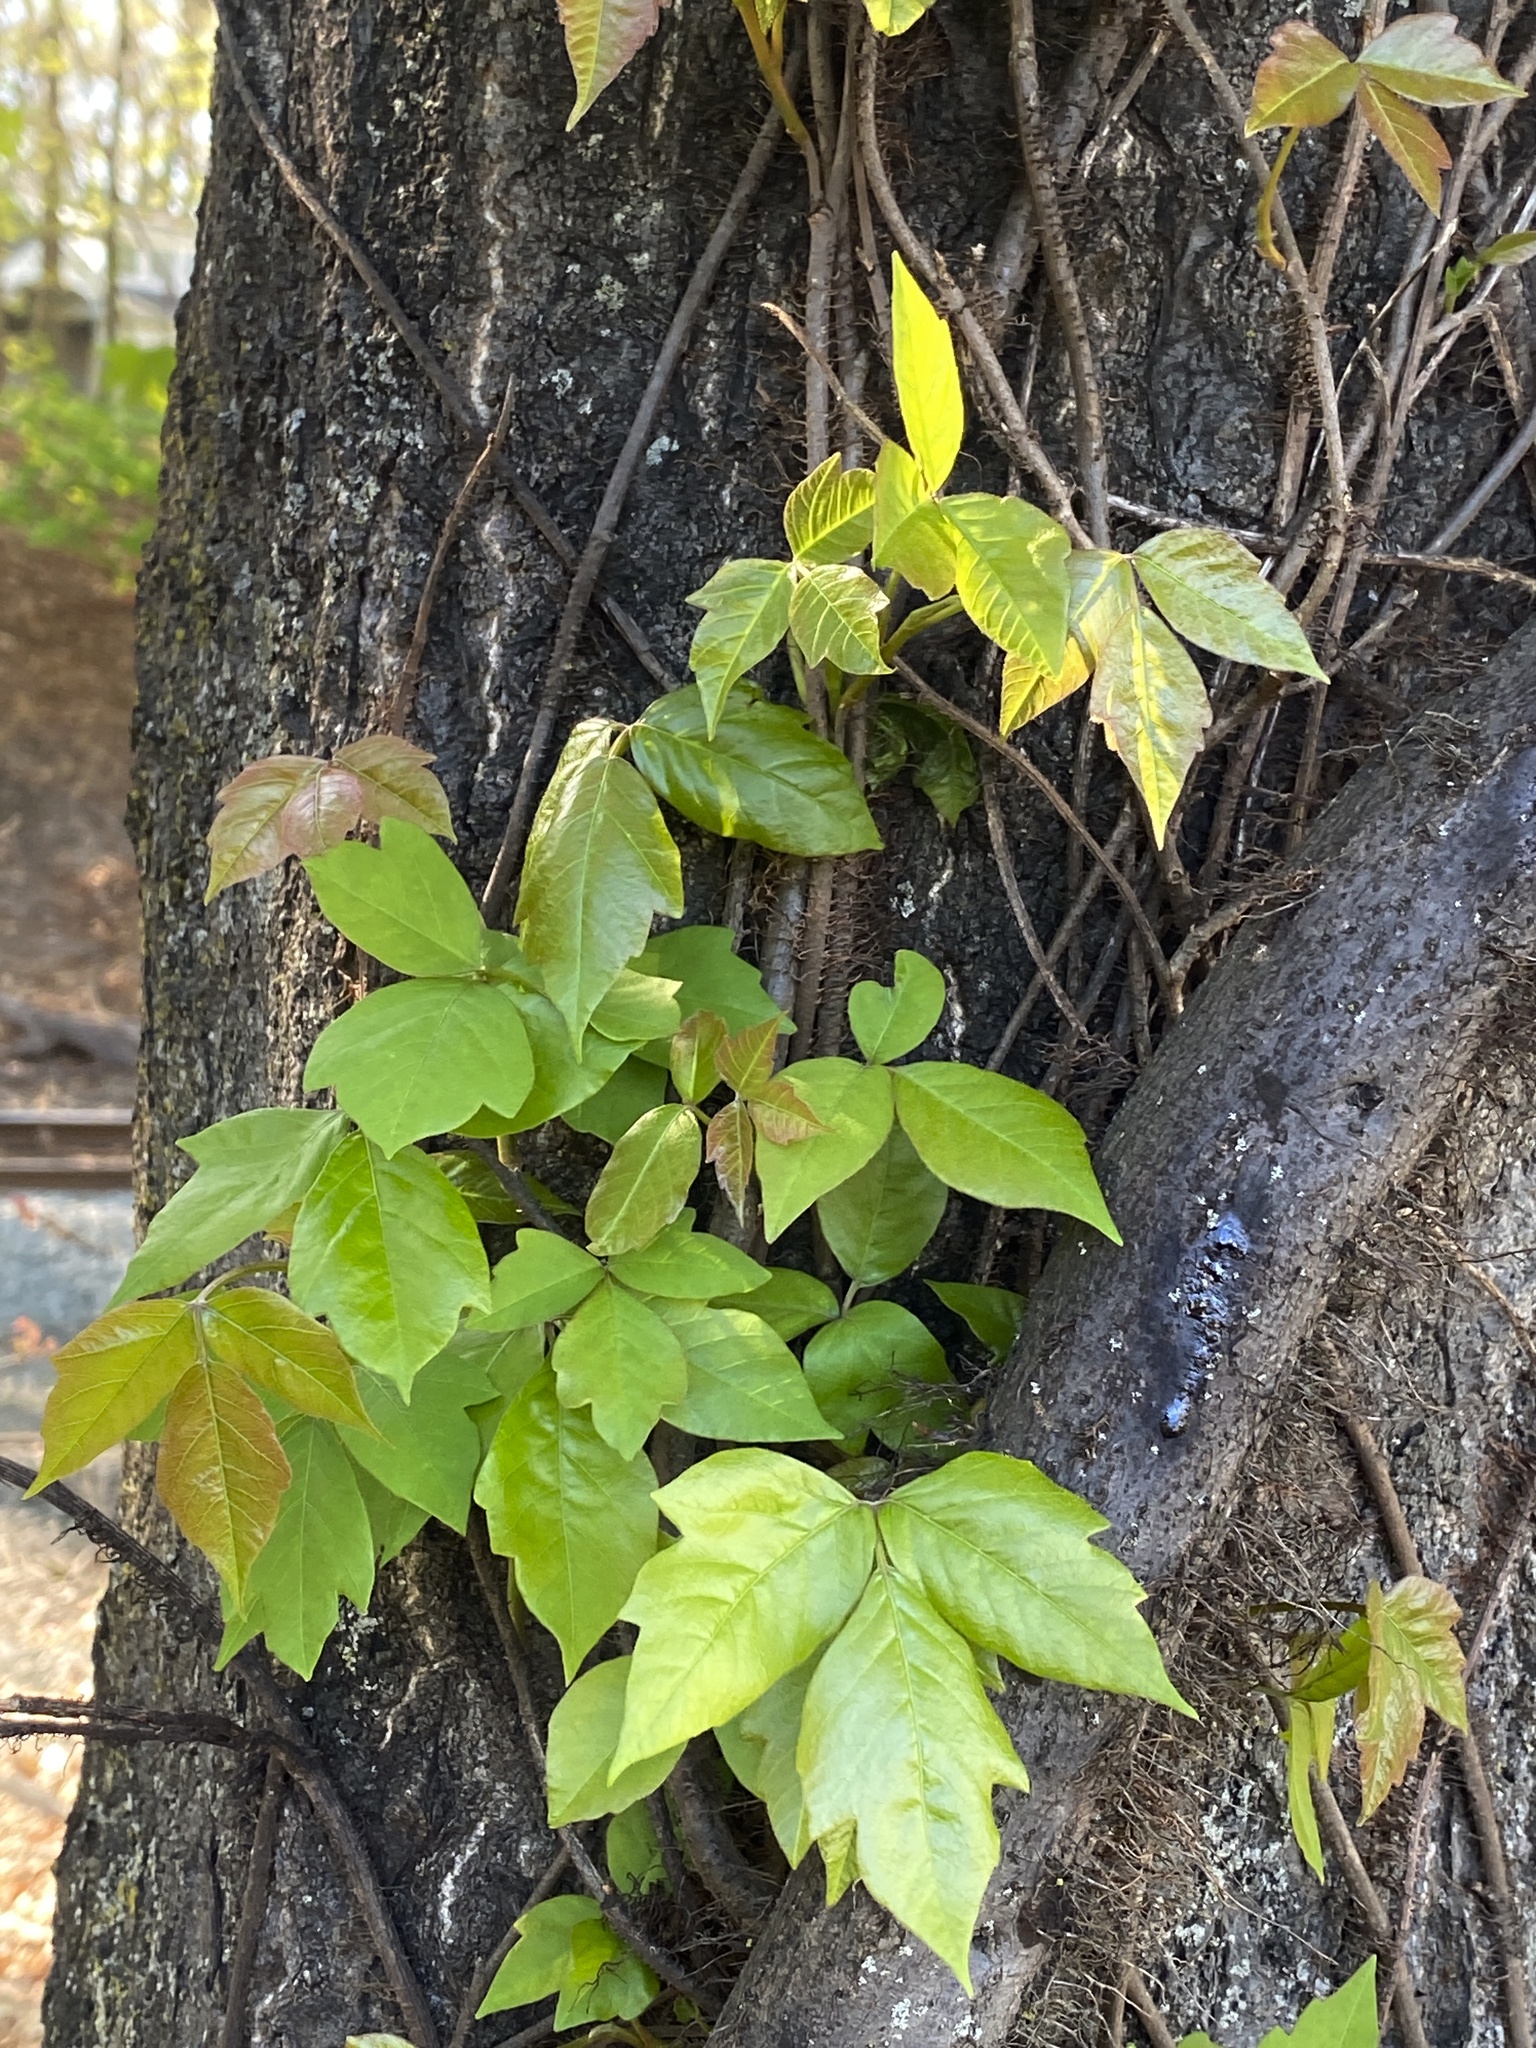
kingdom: Plantae
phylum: Tracheophyta
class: Magnoliopsida
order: Sapindales
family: Anacardiaceae
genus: Toxicodendron
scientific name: Toxicodendron radicans
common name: Poison ivy
